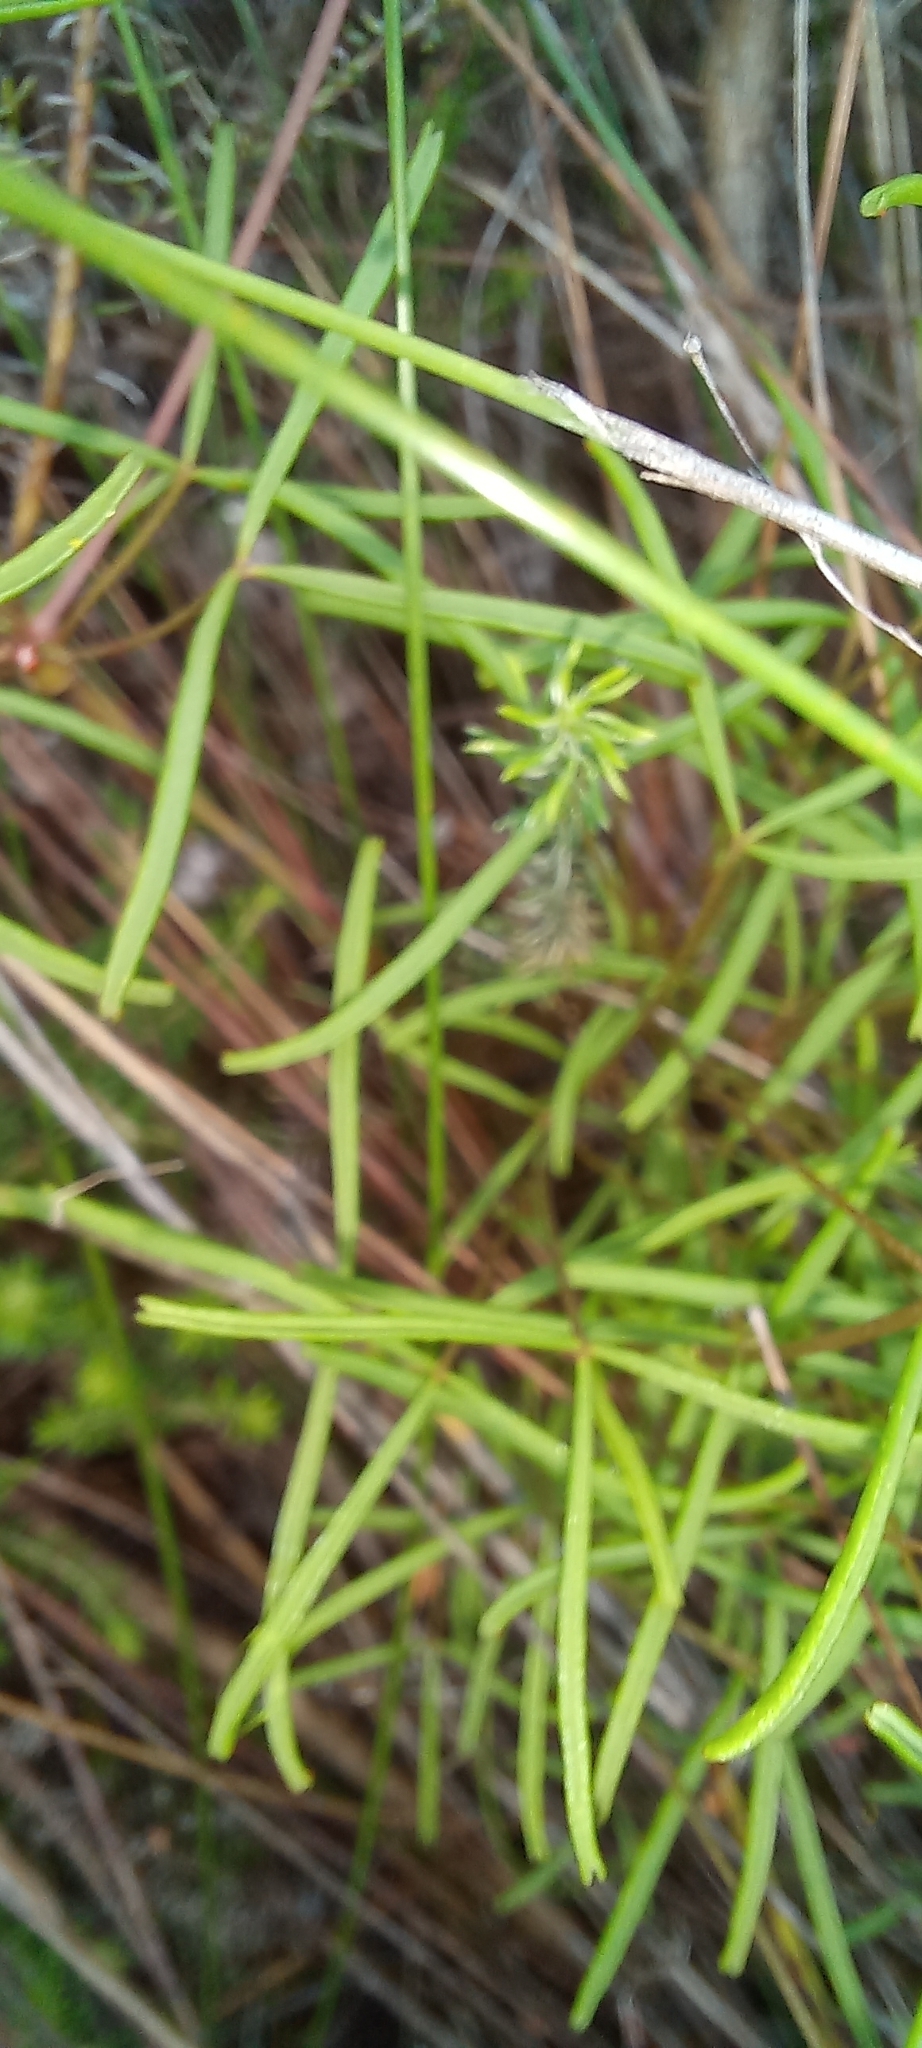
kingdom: Plantae
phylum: Tracheophyta
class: Magnoliopsida
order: Oxalidales
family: Oxalidaceae
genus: Oxalis
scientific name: Oxalis polyphylla
